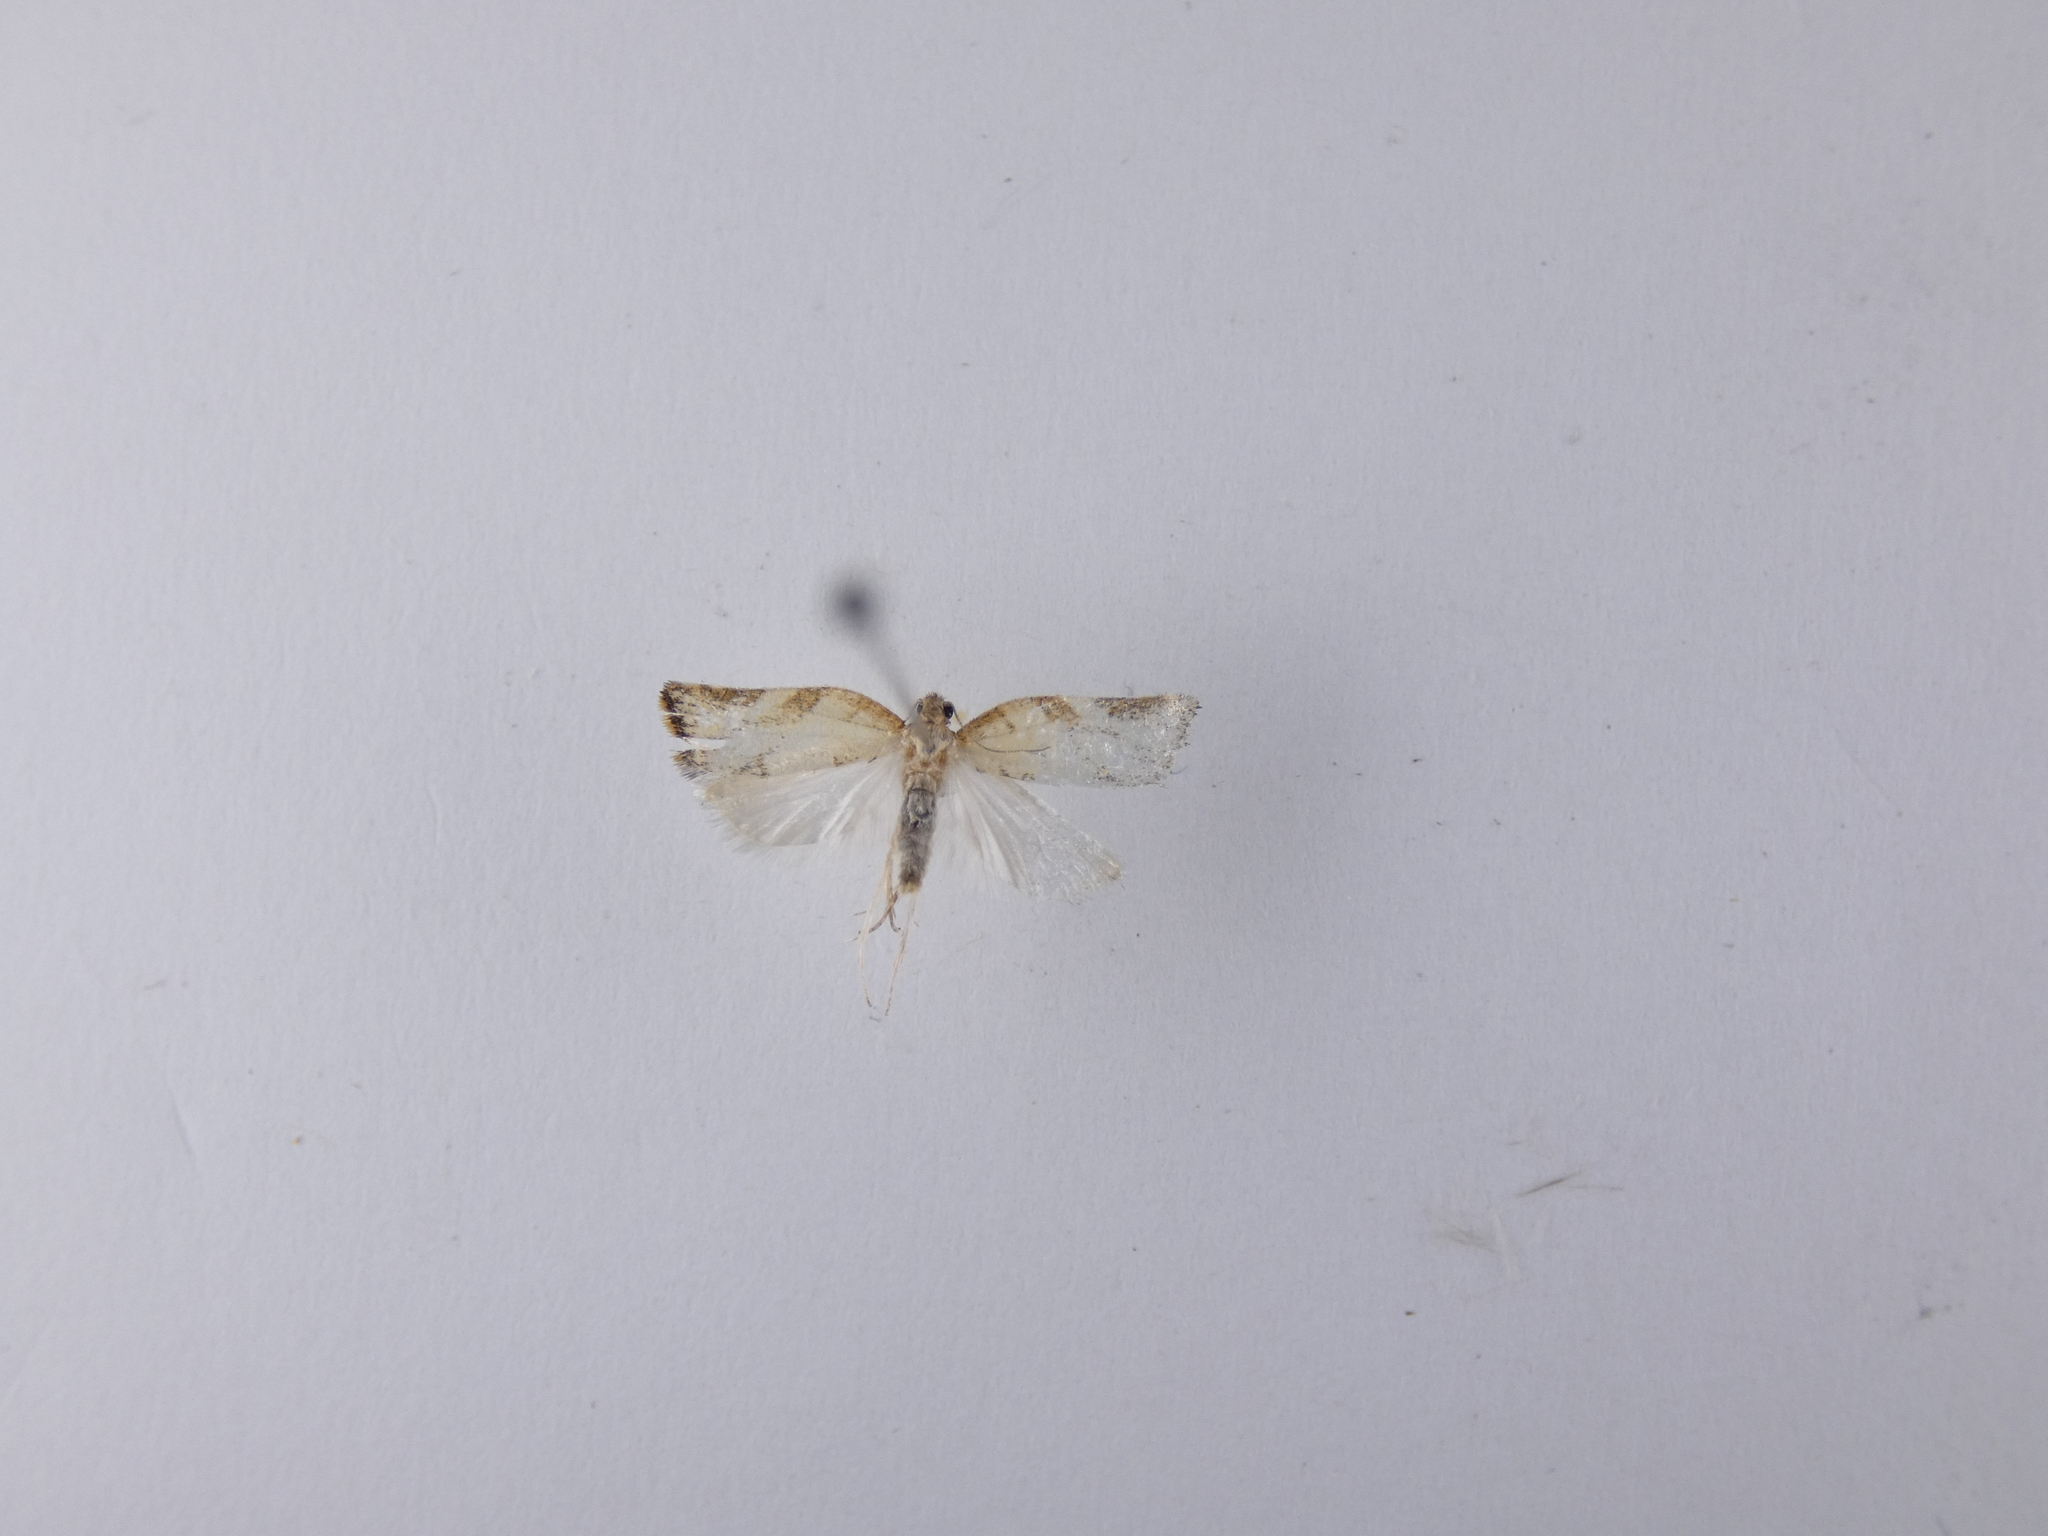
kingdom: Animalia
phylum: Arthropoda
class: Insecta
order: Lepidoptera
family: Tortricidae
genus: Catamacta
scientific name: Catamacta gavisana
